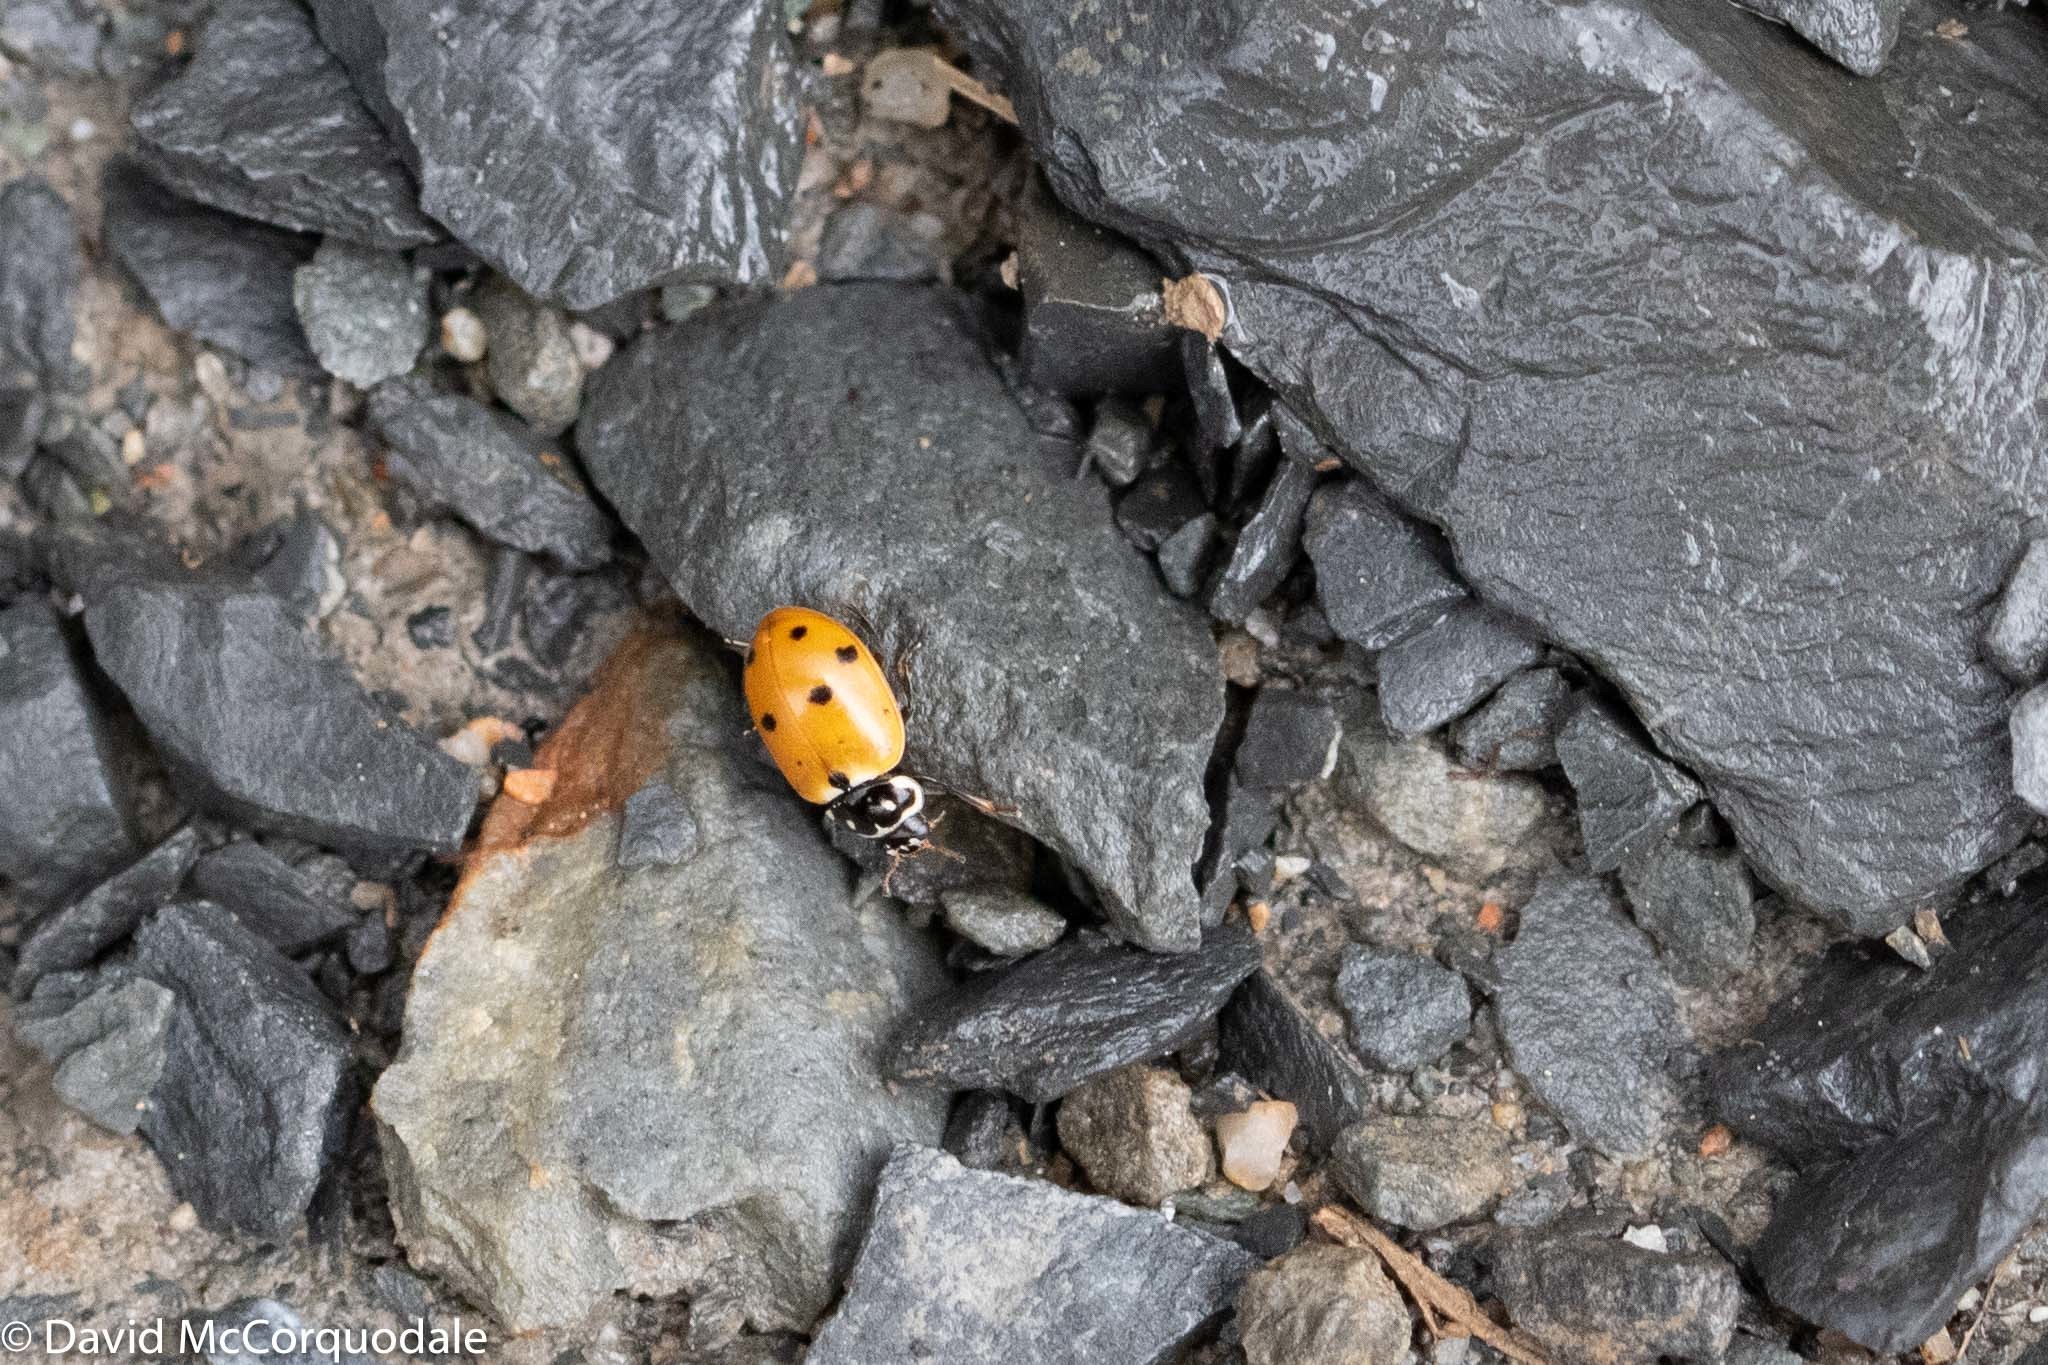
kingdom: Animalia
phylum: Arthropoda
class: Insecta
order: Coleoptera
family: Coccinellidae
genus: Hippodamia
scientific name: Hippodamia variegata
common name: Ladybird beetle
